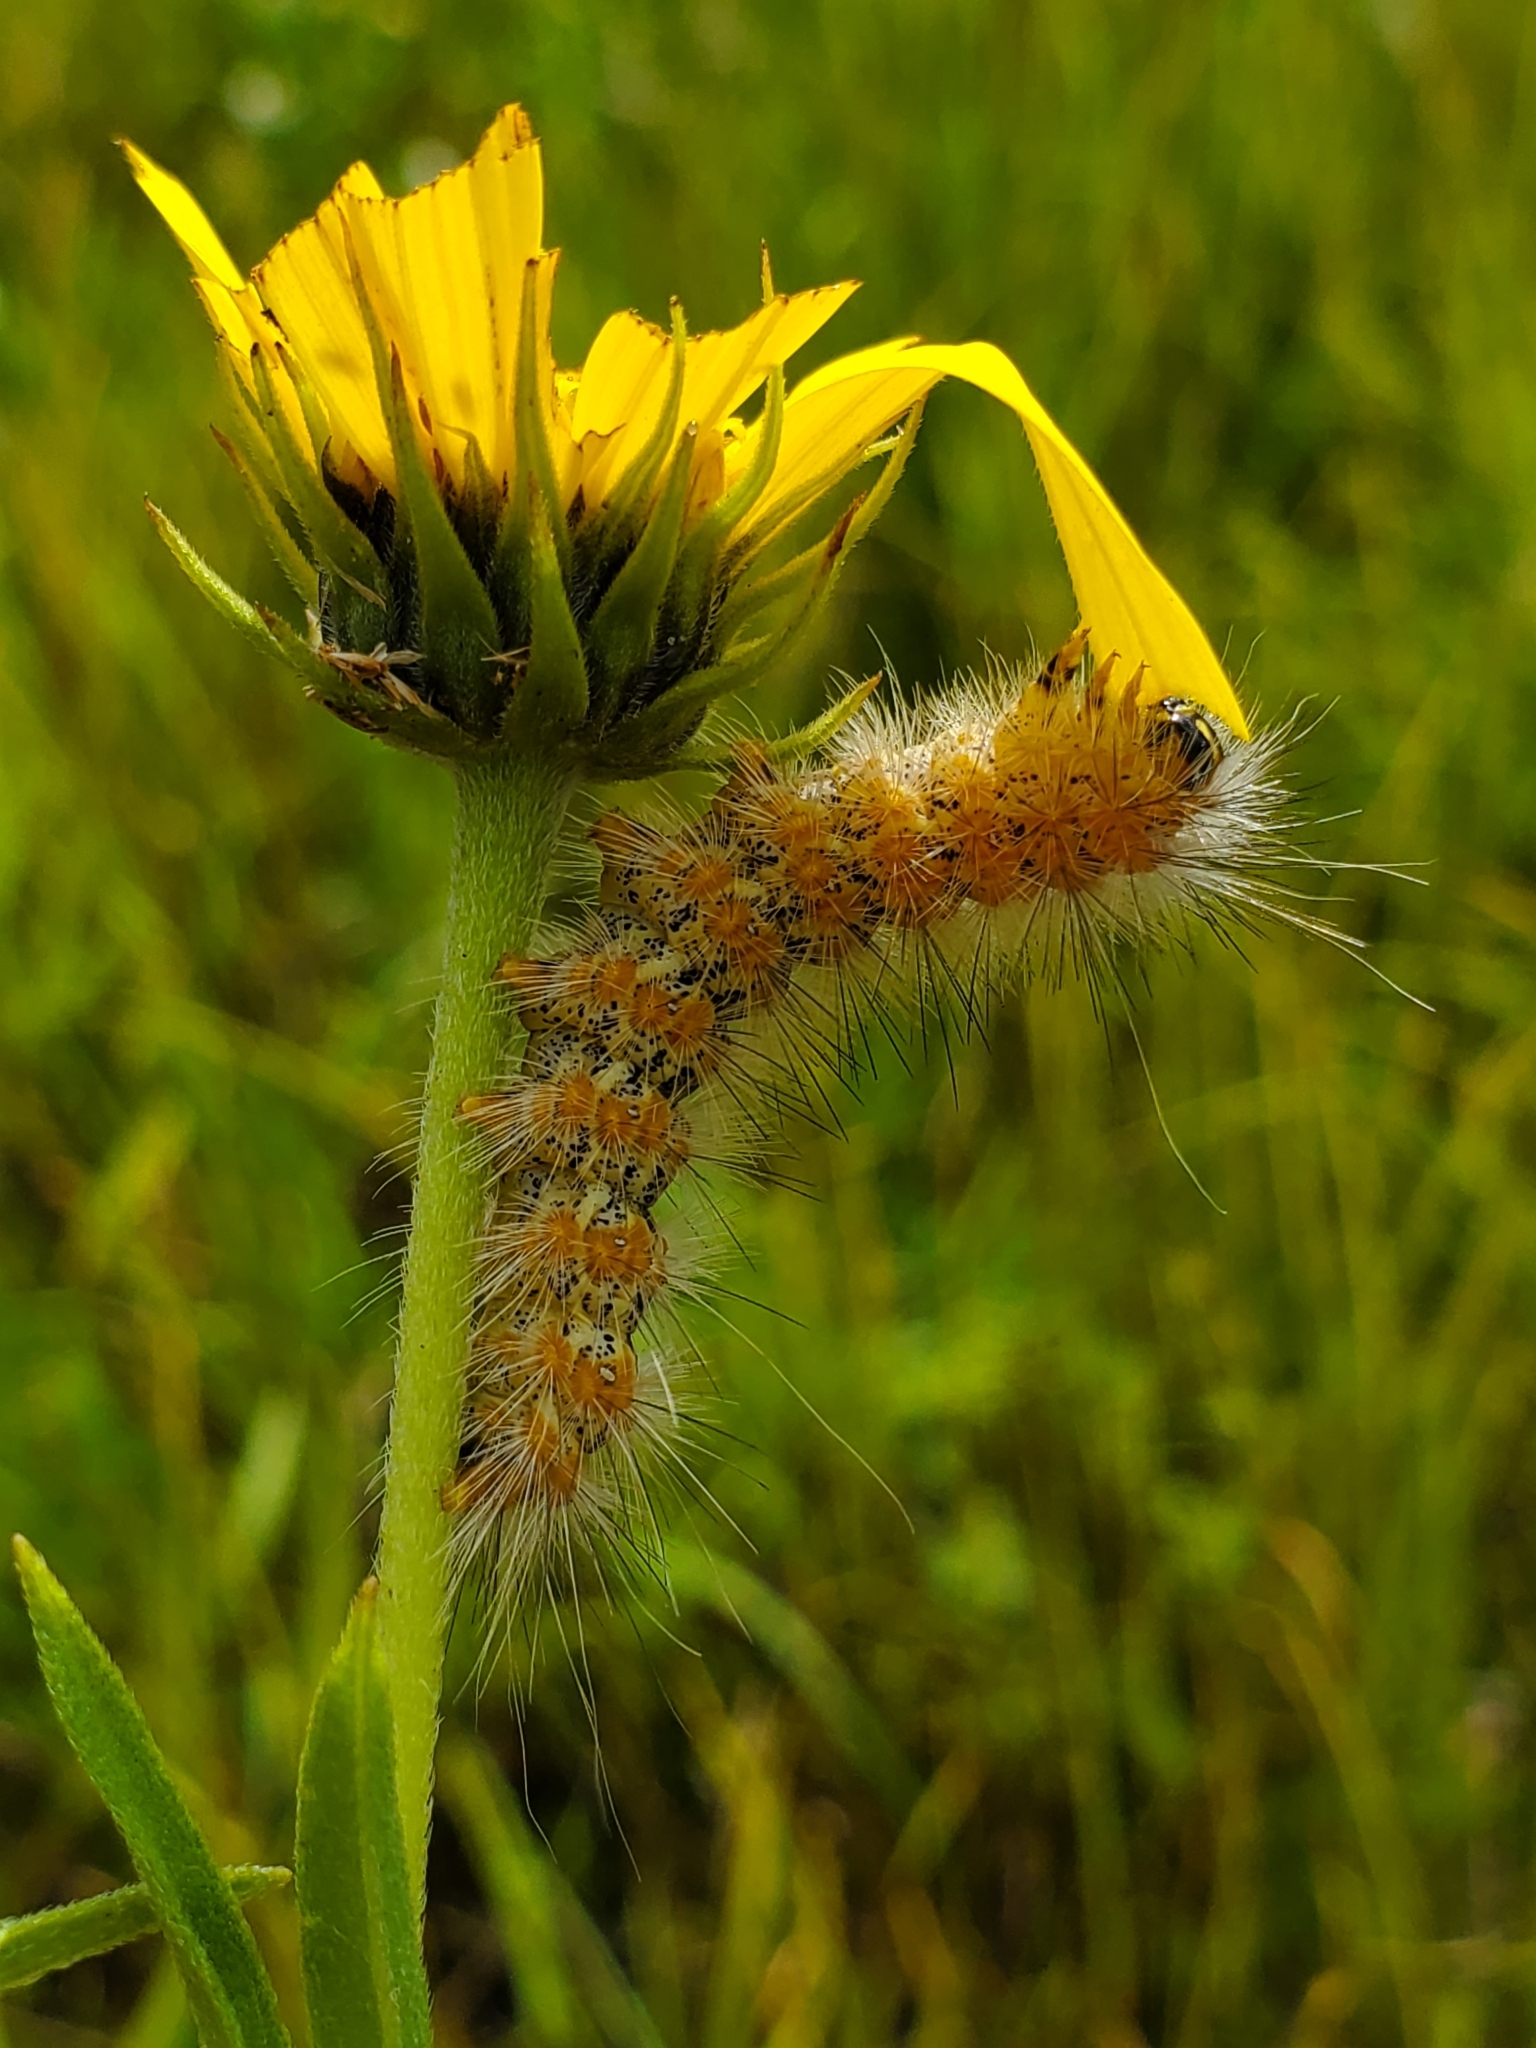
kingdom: Animalia
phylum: Arthropoda
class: Insecta
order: Lepidoptera
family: Erebidae
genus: Estigmene
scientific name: Estigmene acrea
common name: Salt marsh moth
